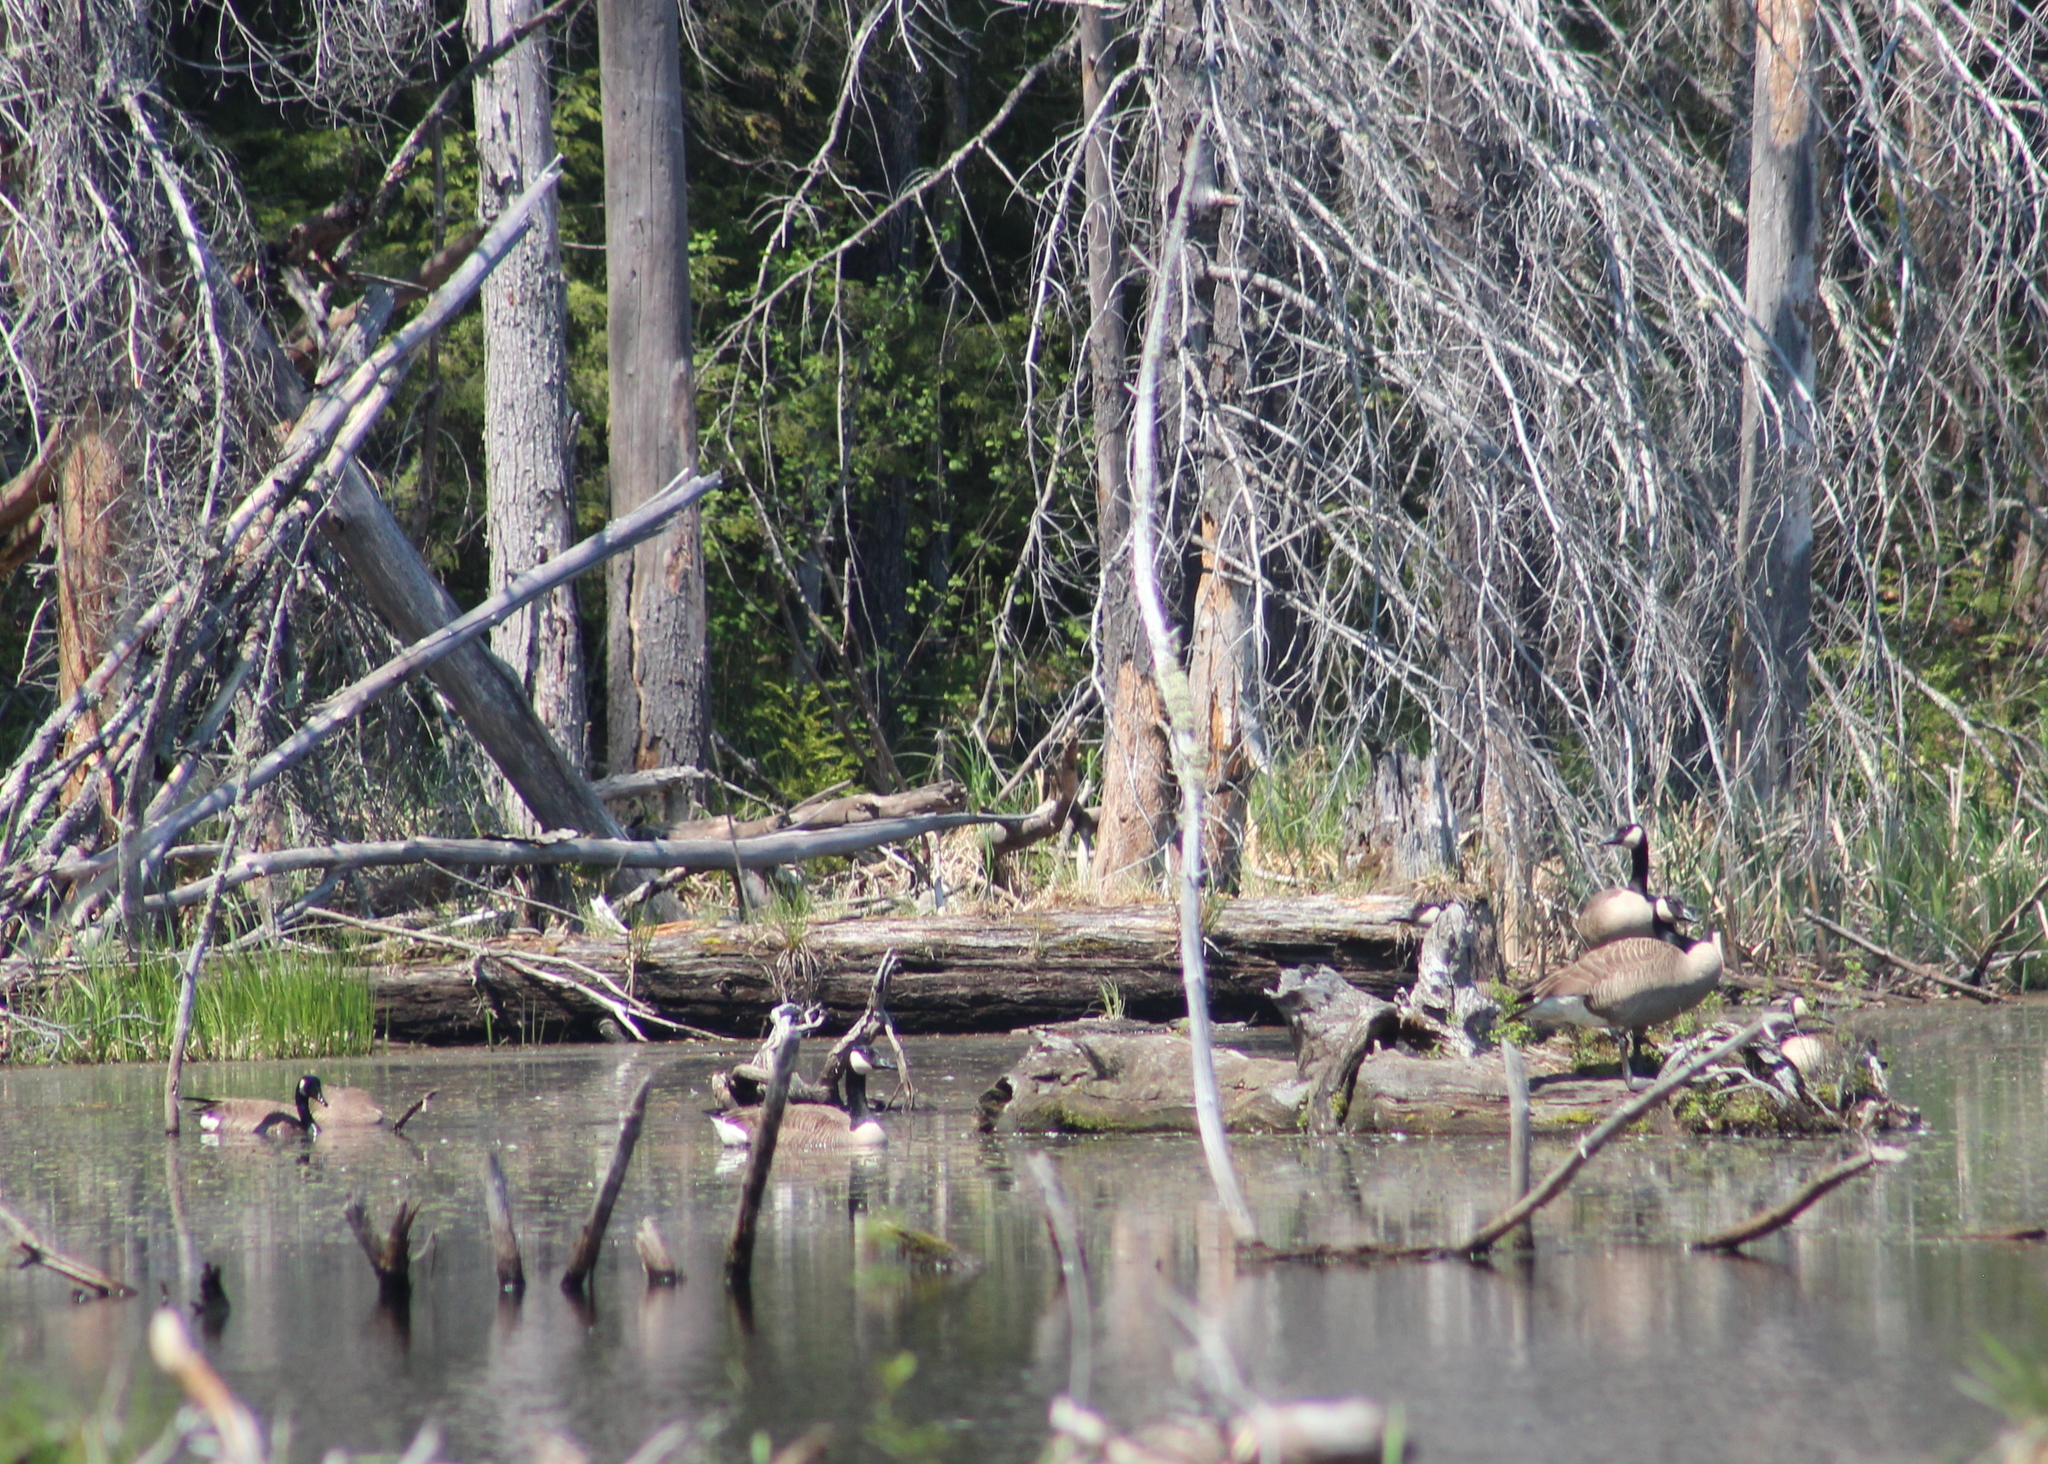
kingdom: Animalia
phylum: Chordata
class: Aves
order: Anseriformes
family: Anatidae
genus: Branta
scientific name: Branta canadensis
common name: Canada goose
